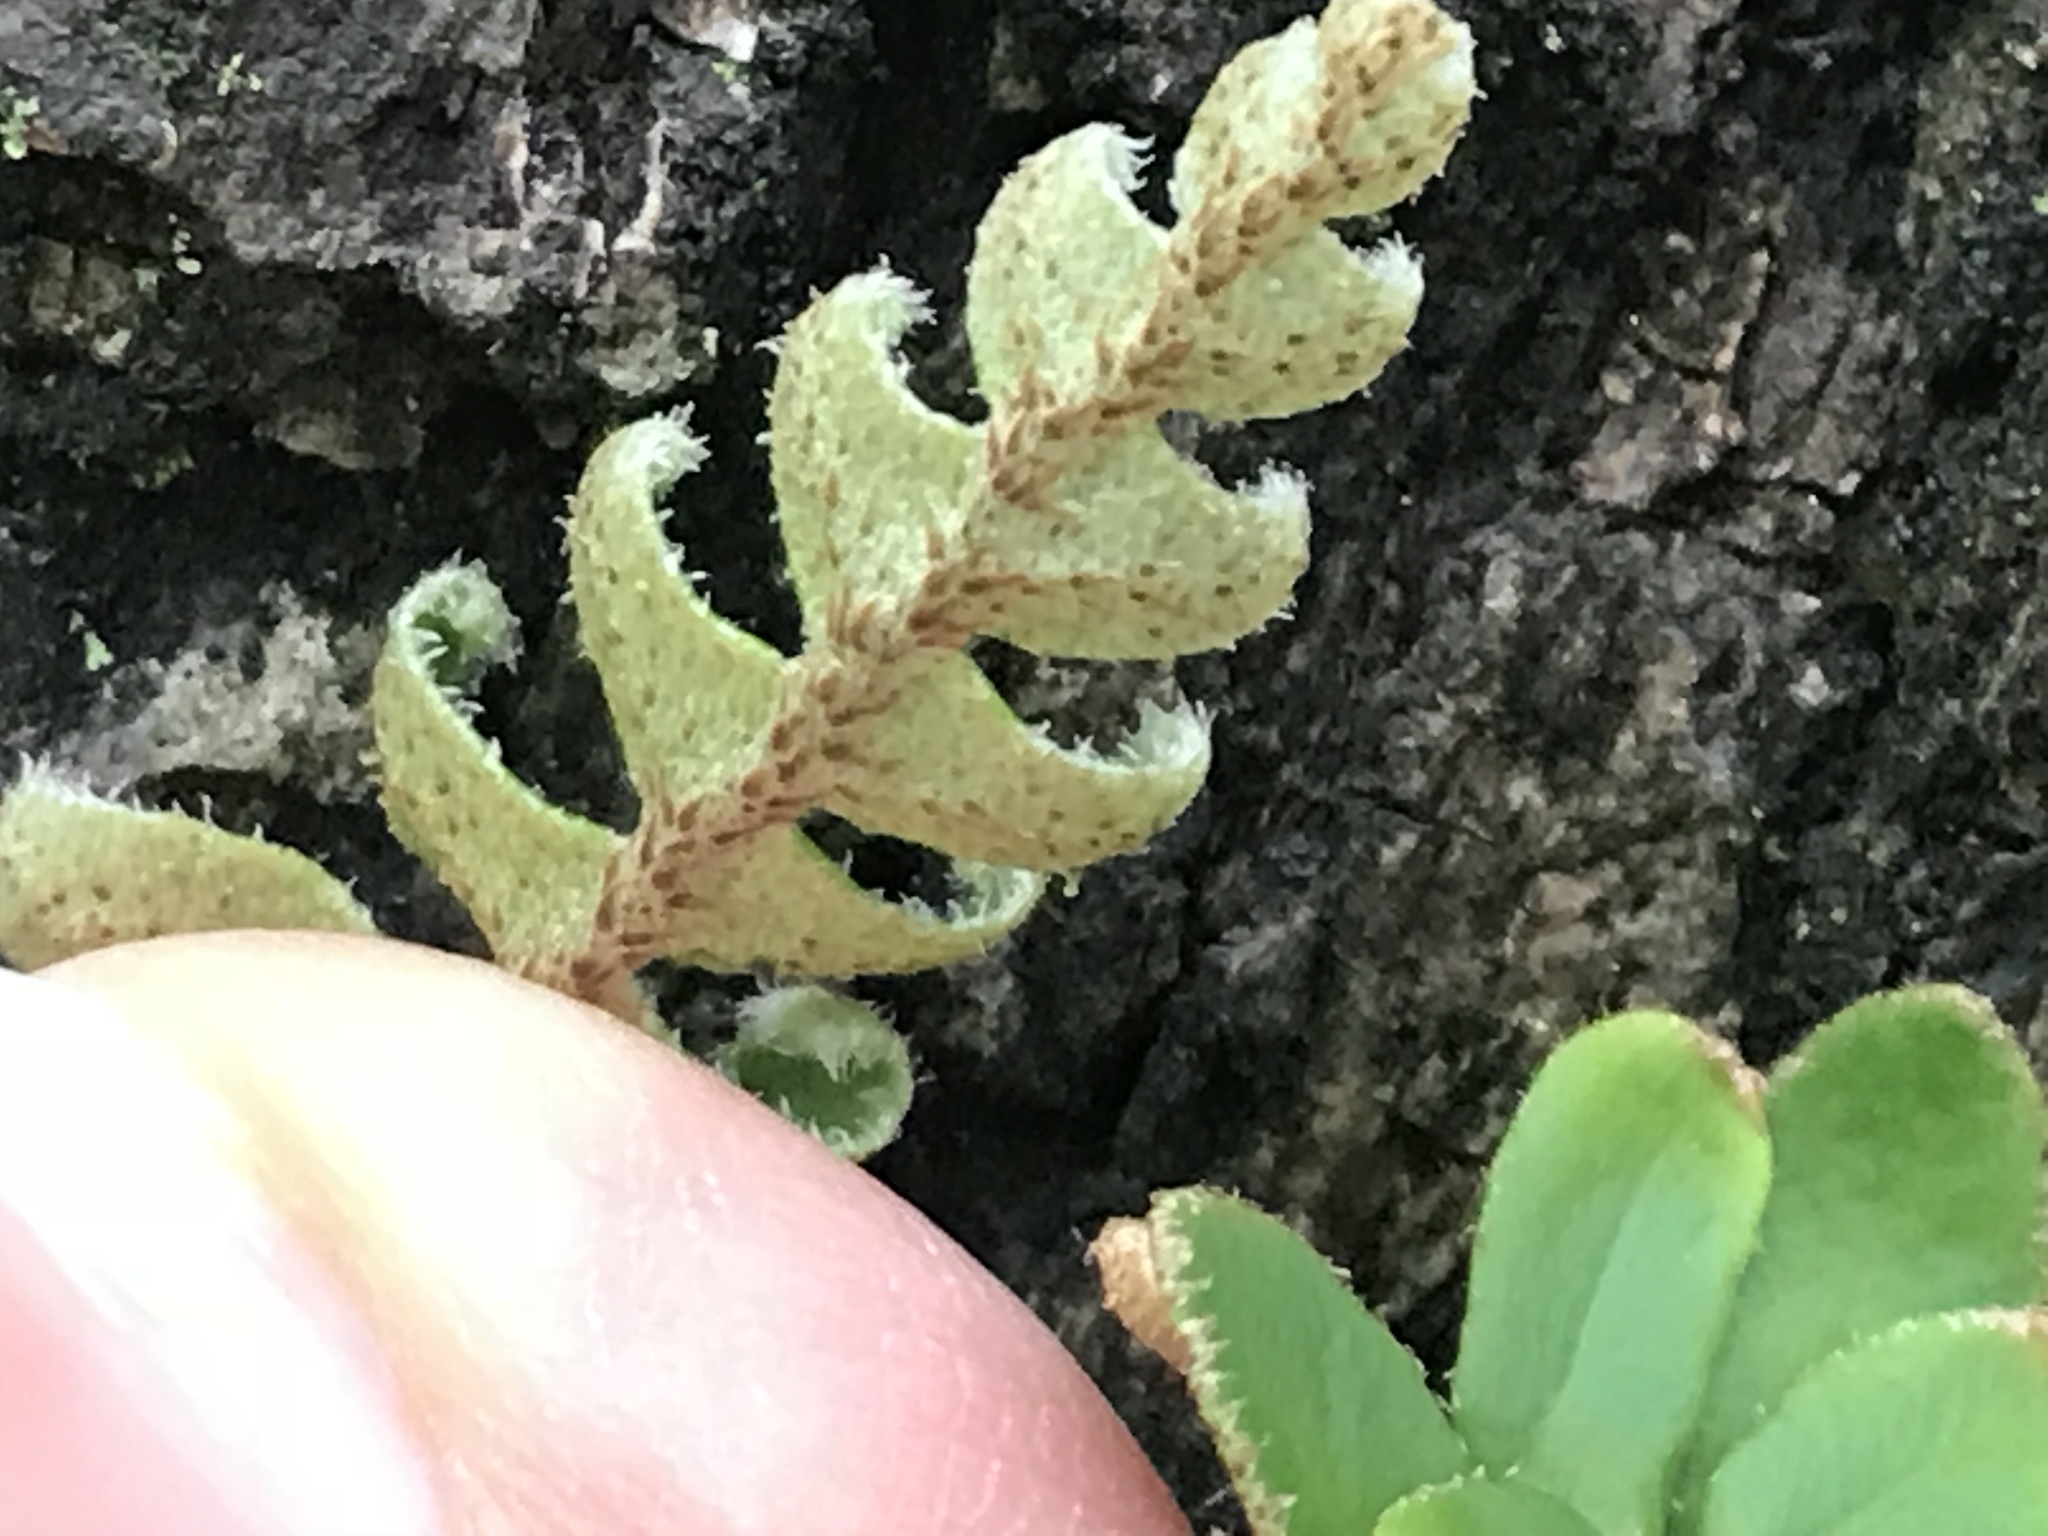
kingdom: Plantae
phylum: Tracheophyta
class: Polypodiopsida
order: Polypodiales
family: Polypodiaceae
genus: Pleopeltis
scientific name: Pleopeltis michauxiana
